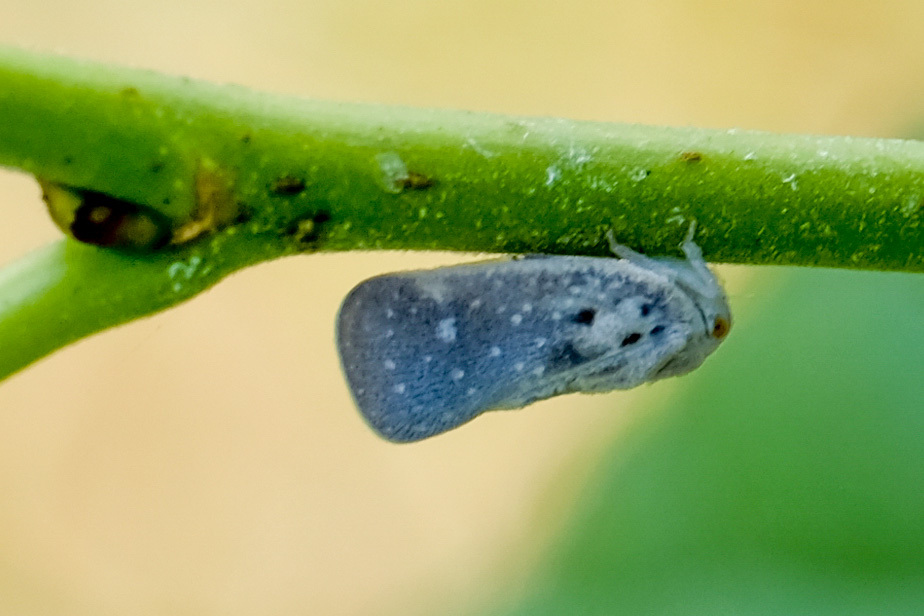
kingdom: Animalia
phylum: Arthropoda
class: Insecta
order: Hemiptera
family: Flatidae
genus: Metcalfa
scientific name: Metcalfa pruinosa
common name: Citrus flatid planthopper
